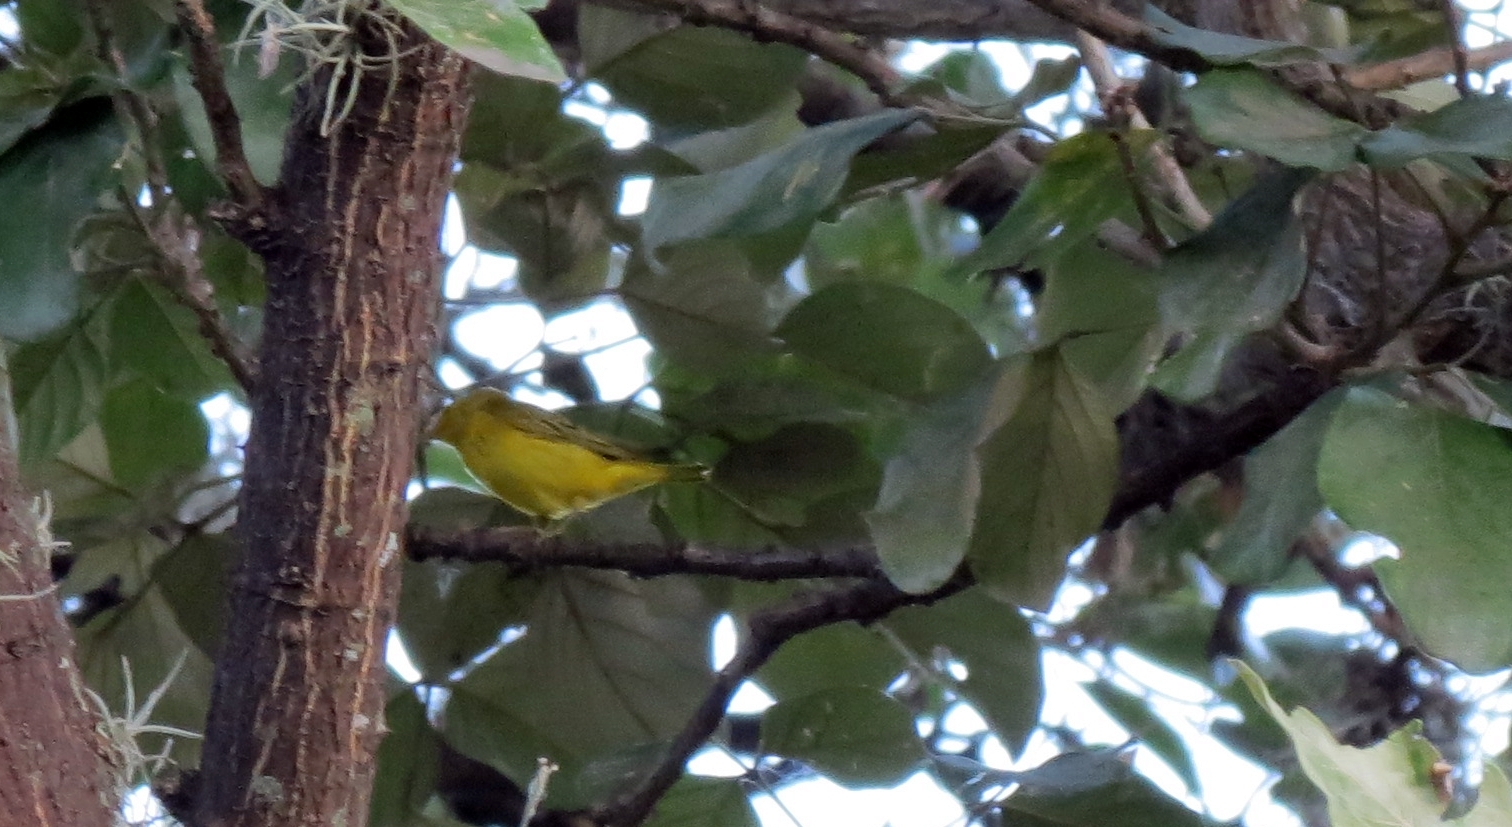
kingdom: Animalia
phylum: Chordata
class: Aves
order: Passeriformes
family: Parulidae
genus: Setophaga
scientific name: Setophaga petechia
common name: Yellow warbler
